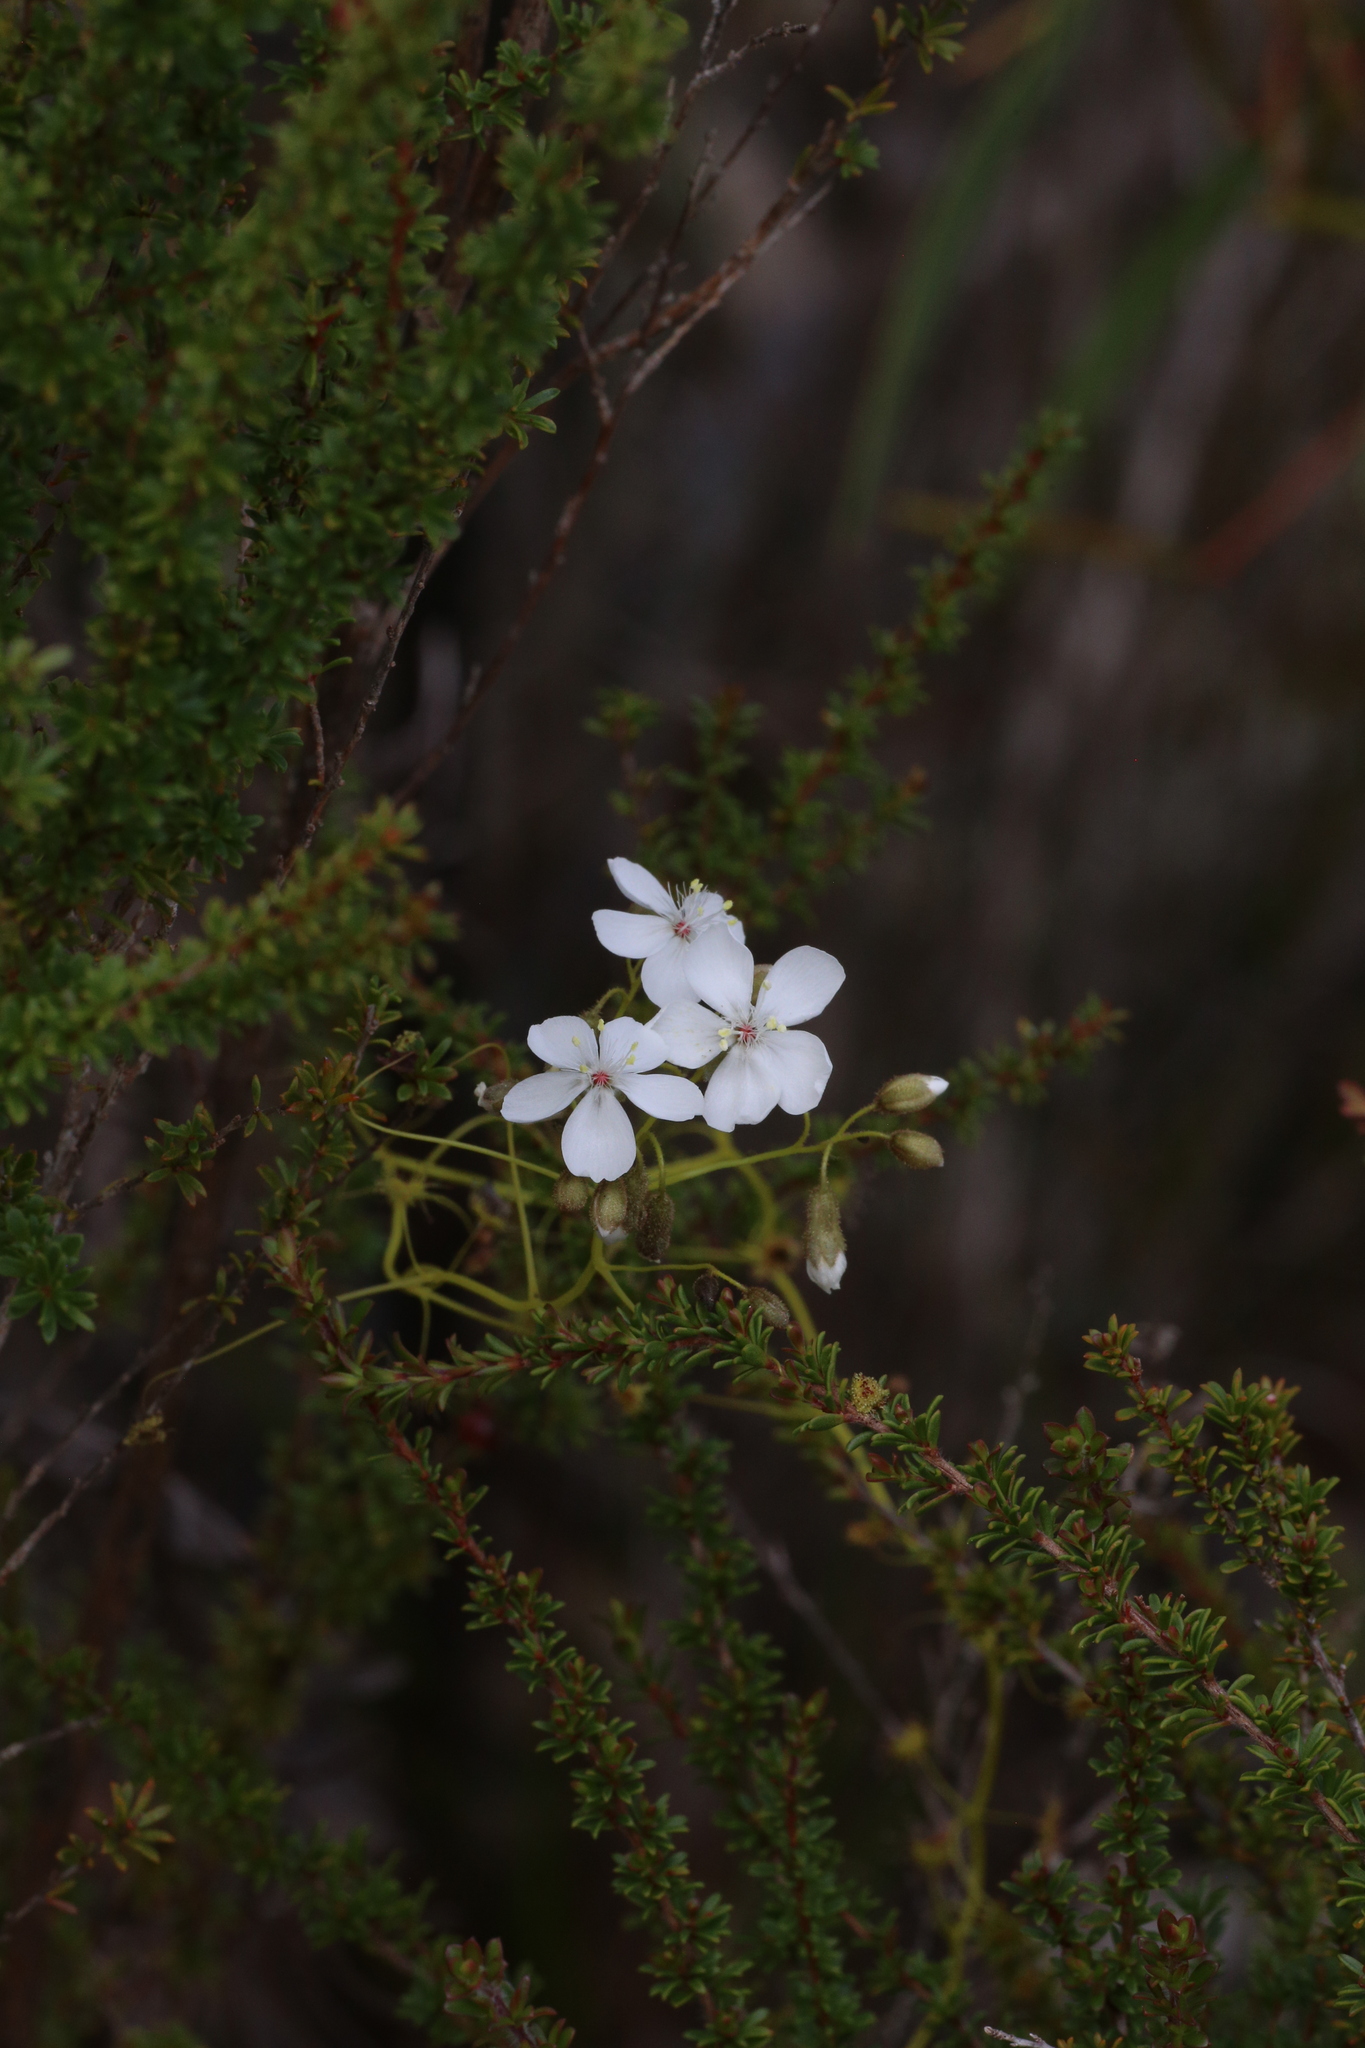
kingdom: Plantae
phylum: Tracheophyta
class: Magnoliopsida
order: Caryophyllales
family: Droseraceae
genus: Drosera
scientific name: Drosera erythrogyne
